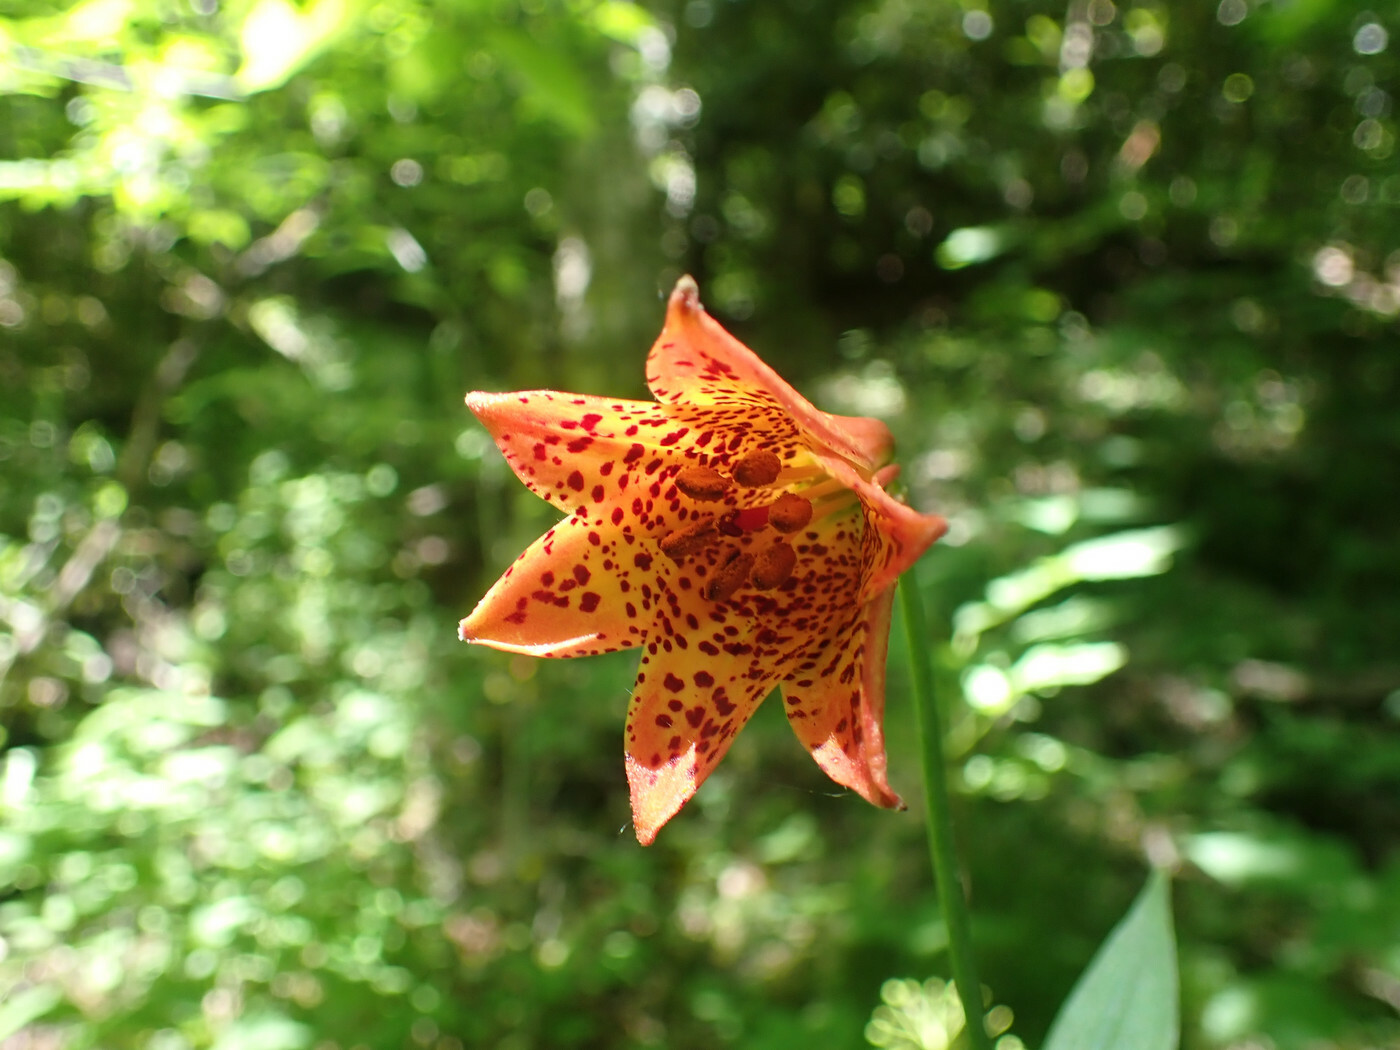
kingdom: Plantae
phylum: Tracheophyta
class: Liliopsida
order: Liliales
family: Liliaceae
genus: Lilium
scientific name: Lilium grayi
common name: Gray's lily
